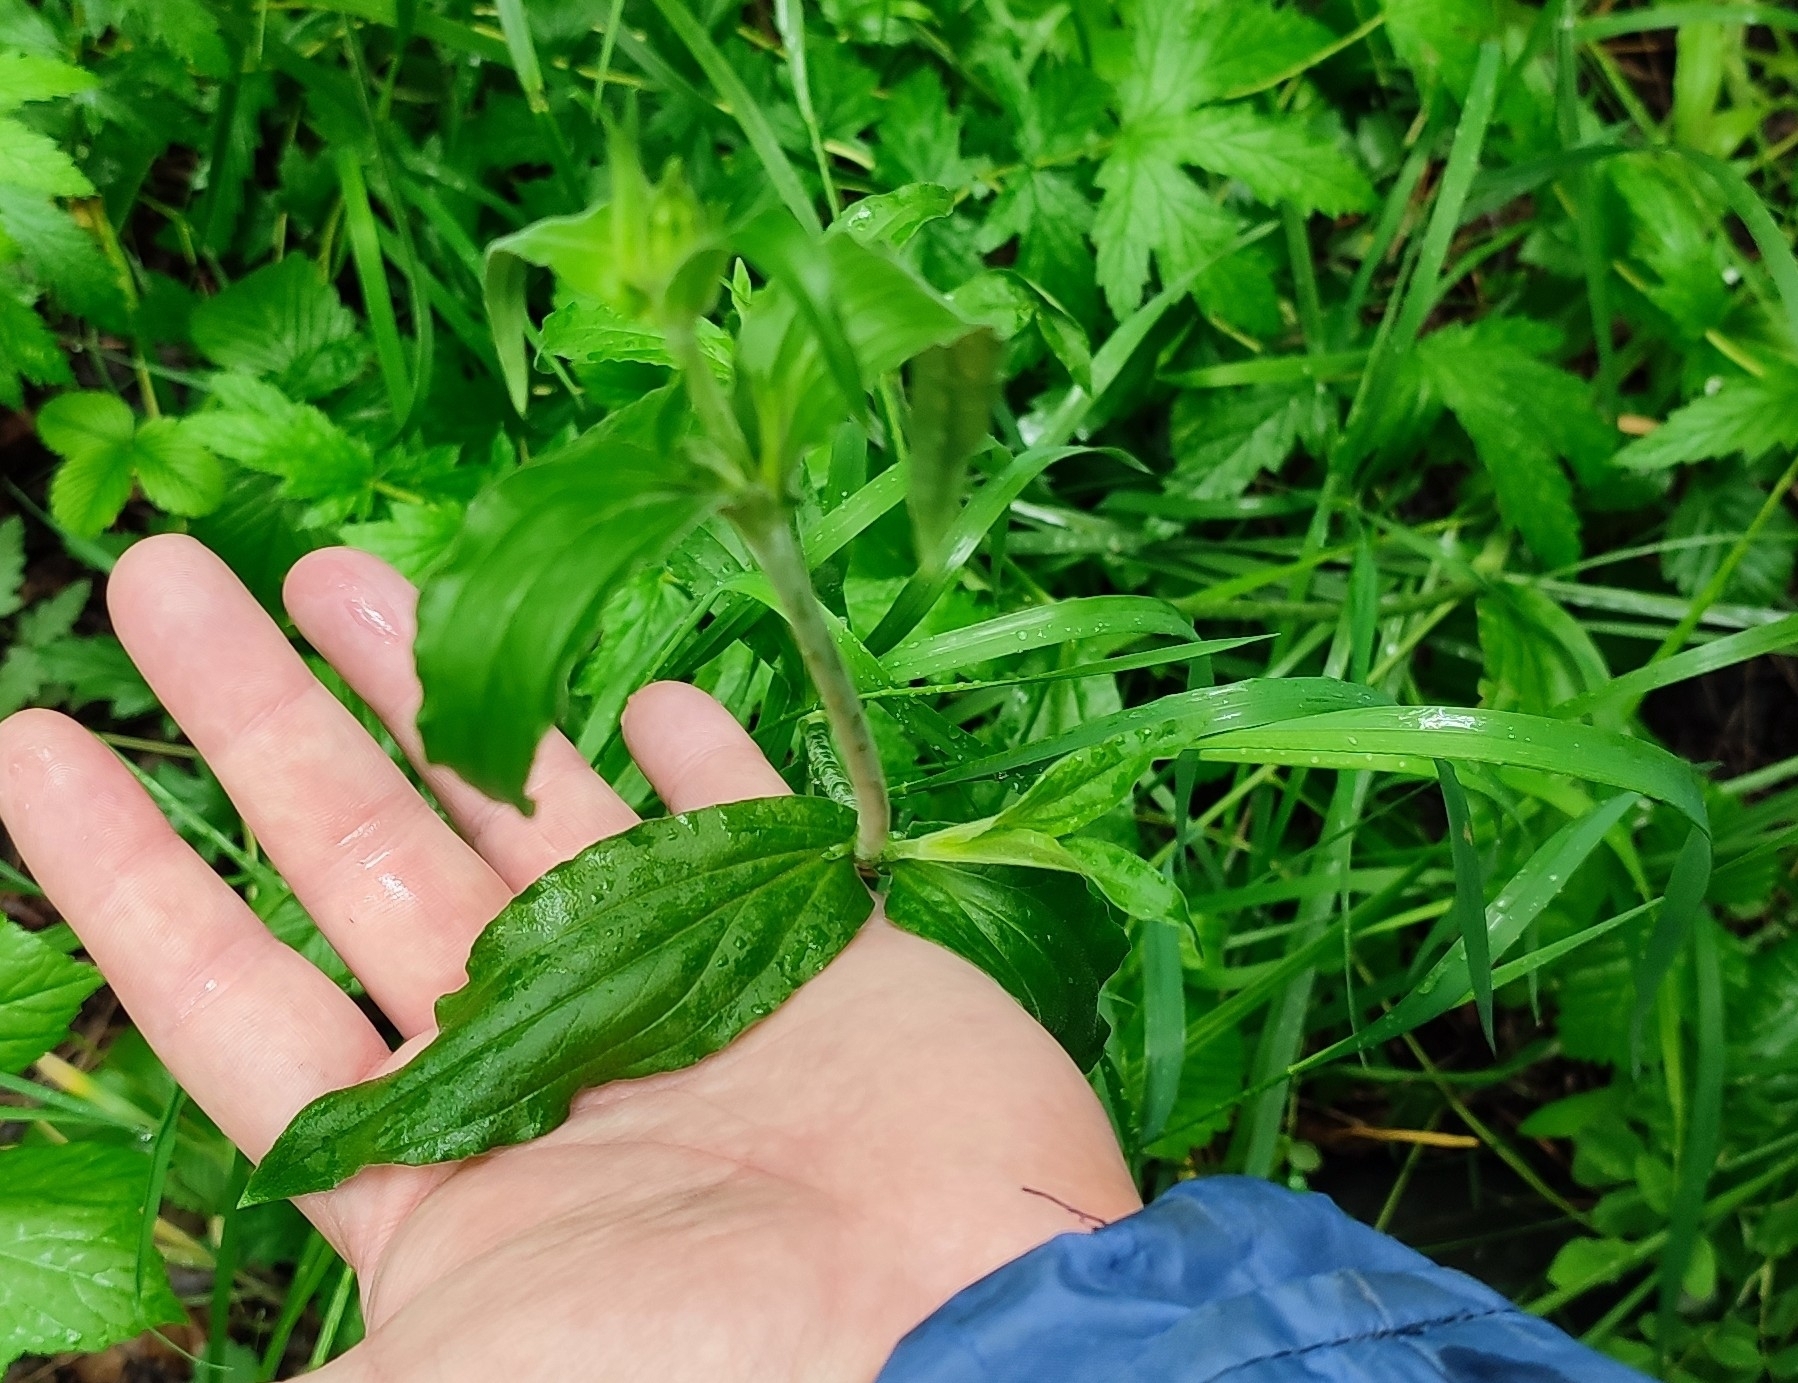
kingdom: Plantae
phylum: Tracheophyta
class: Magnoliopsida
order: Caryophyllales
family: Caryophyllaceae
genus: Silene
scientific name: Silene latifolia
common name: White campion
